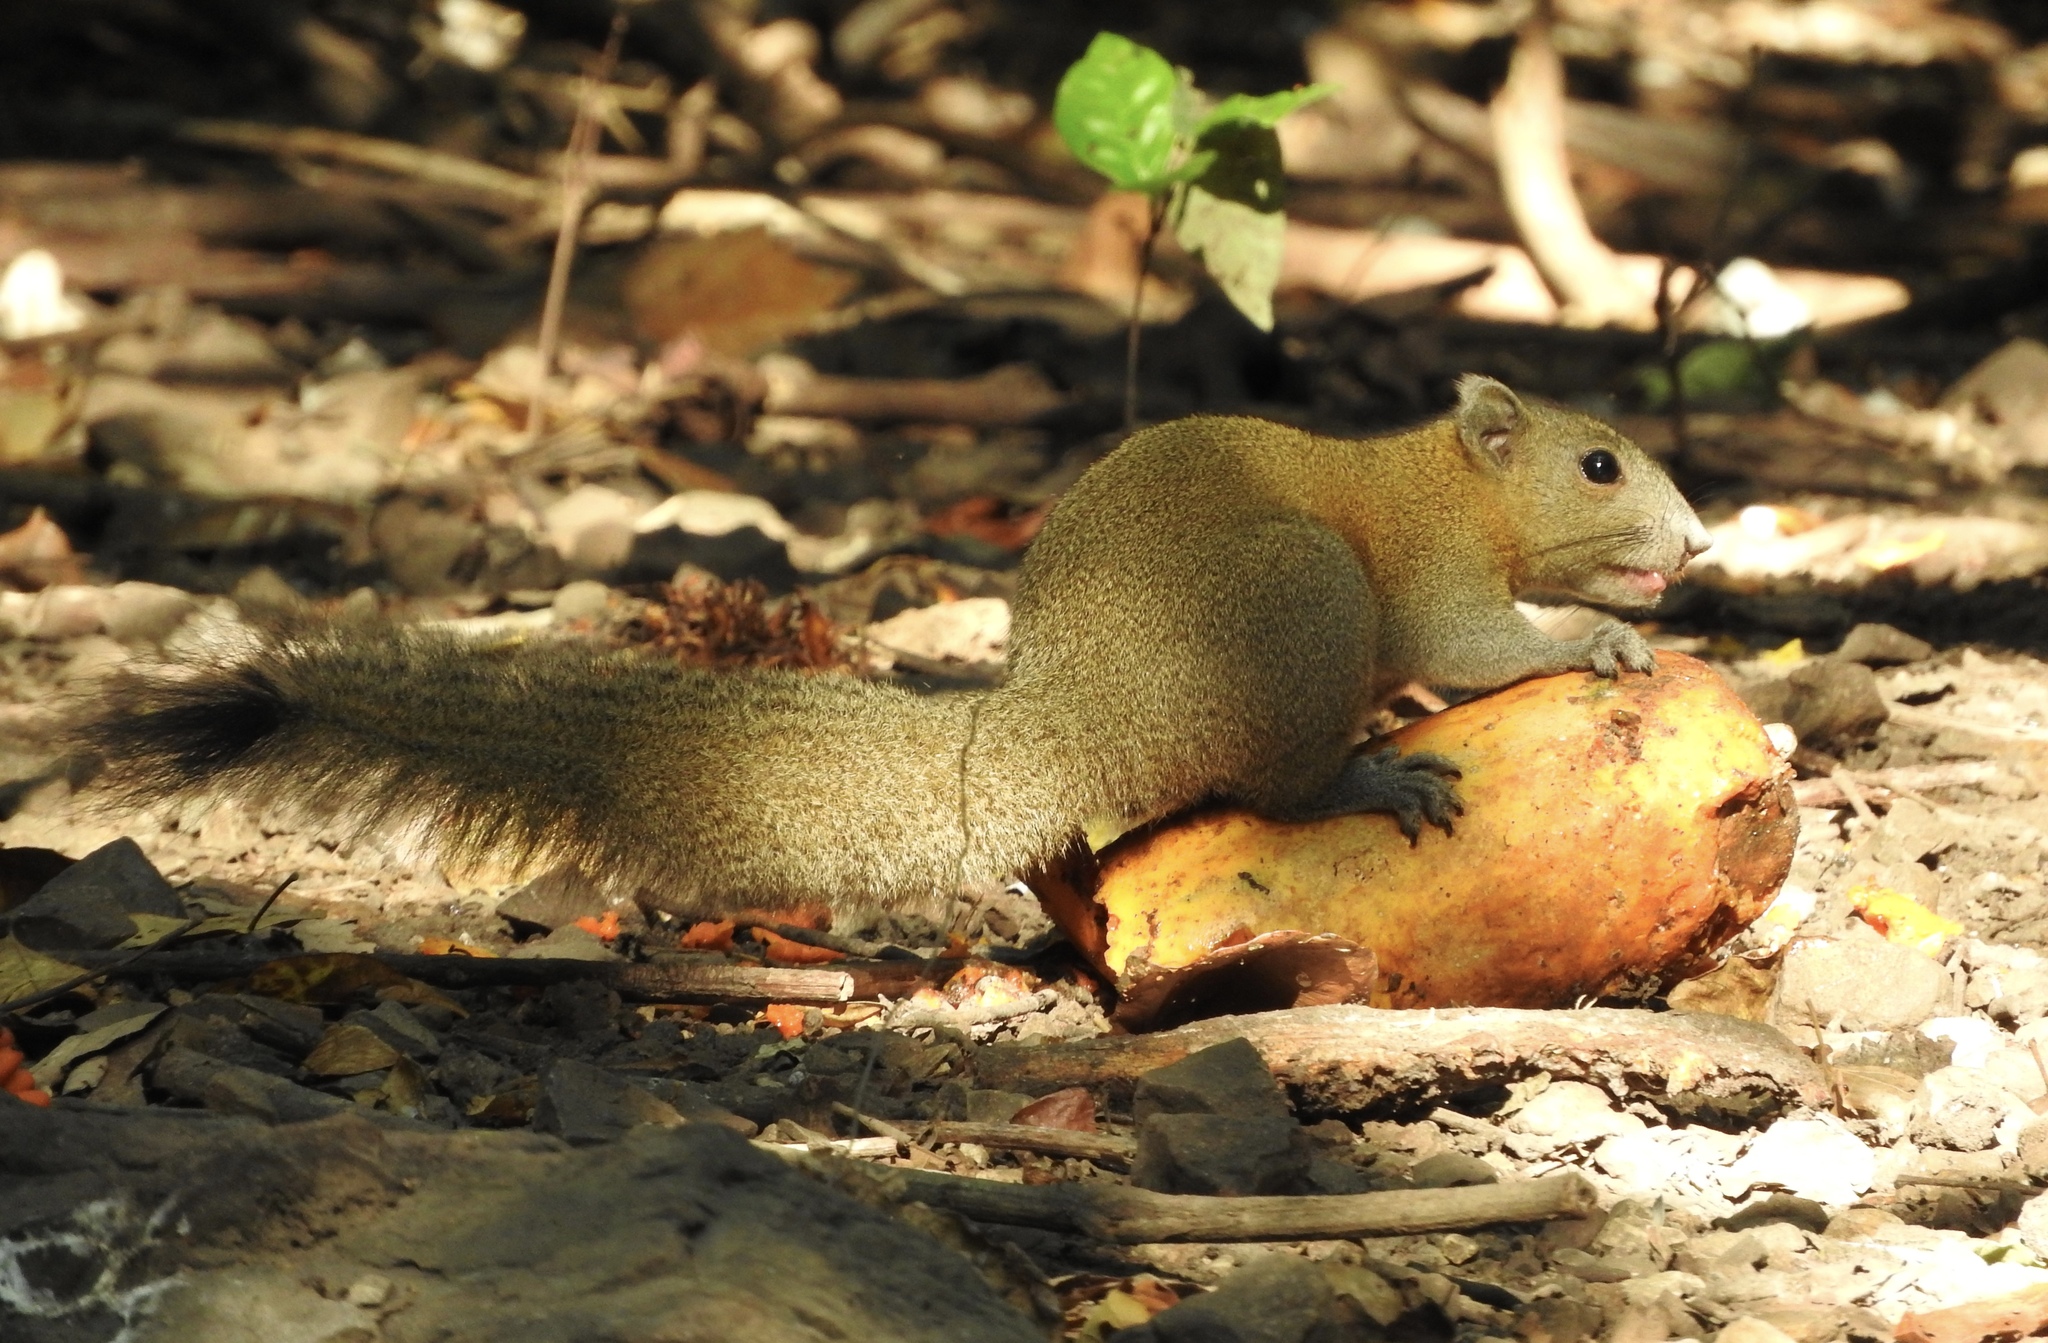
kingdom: Animalia
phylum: Chordata
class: Mammalia
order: Rodentia
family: Sciuridae
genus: Callosciurus
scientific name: Callosciurus caniceps
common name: Gray-bellied squirrel
